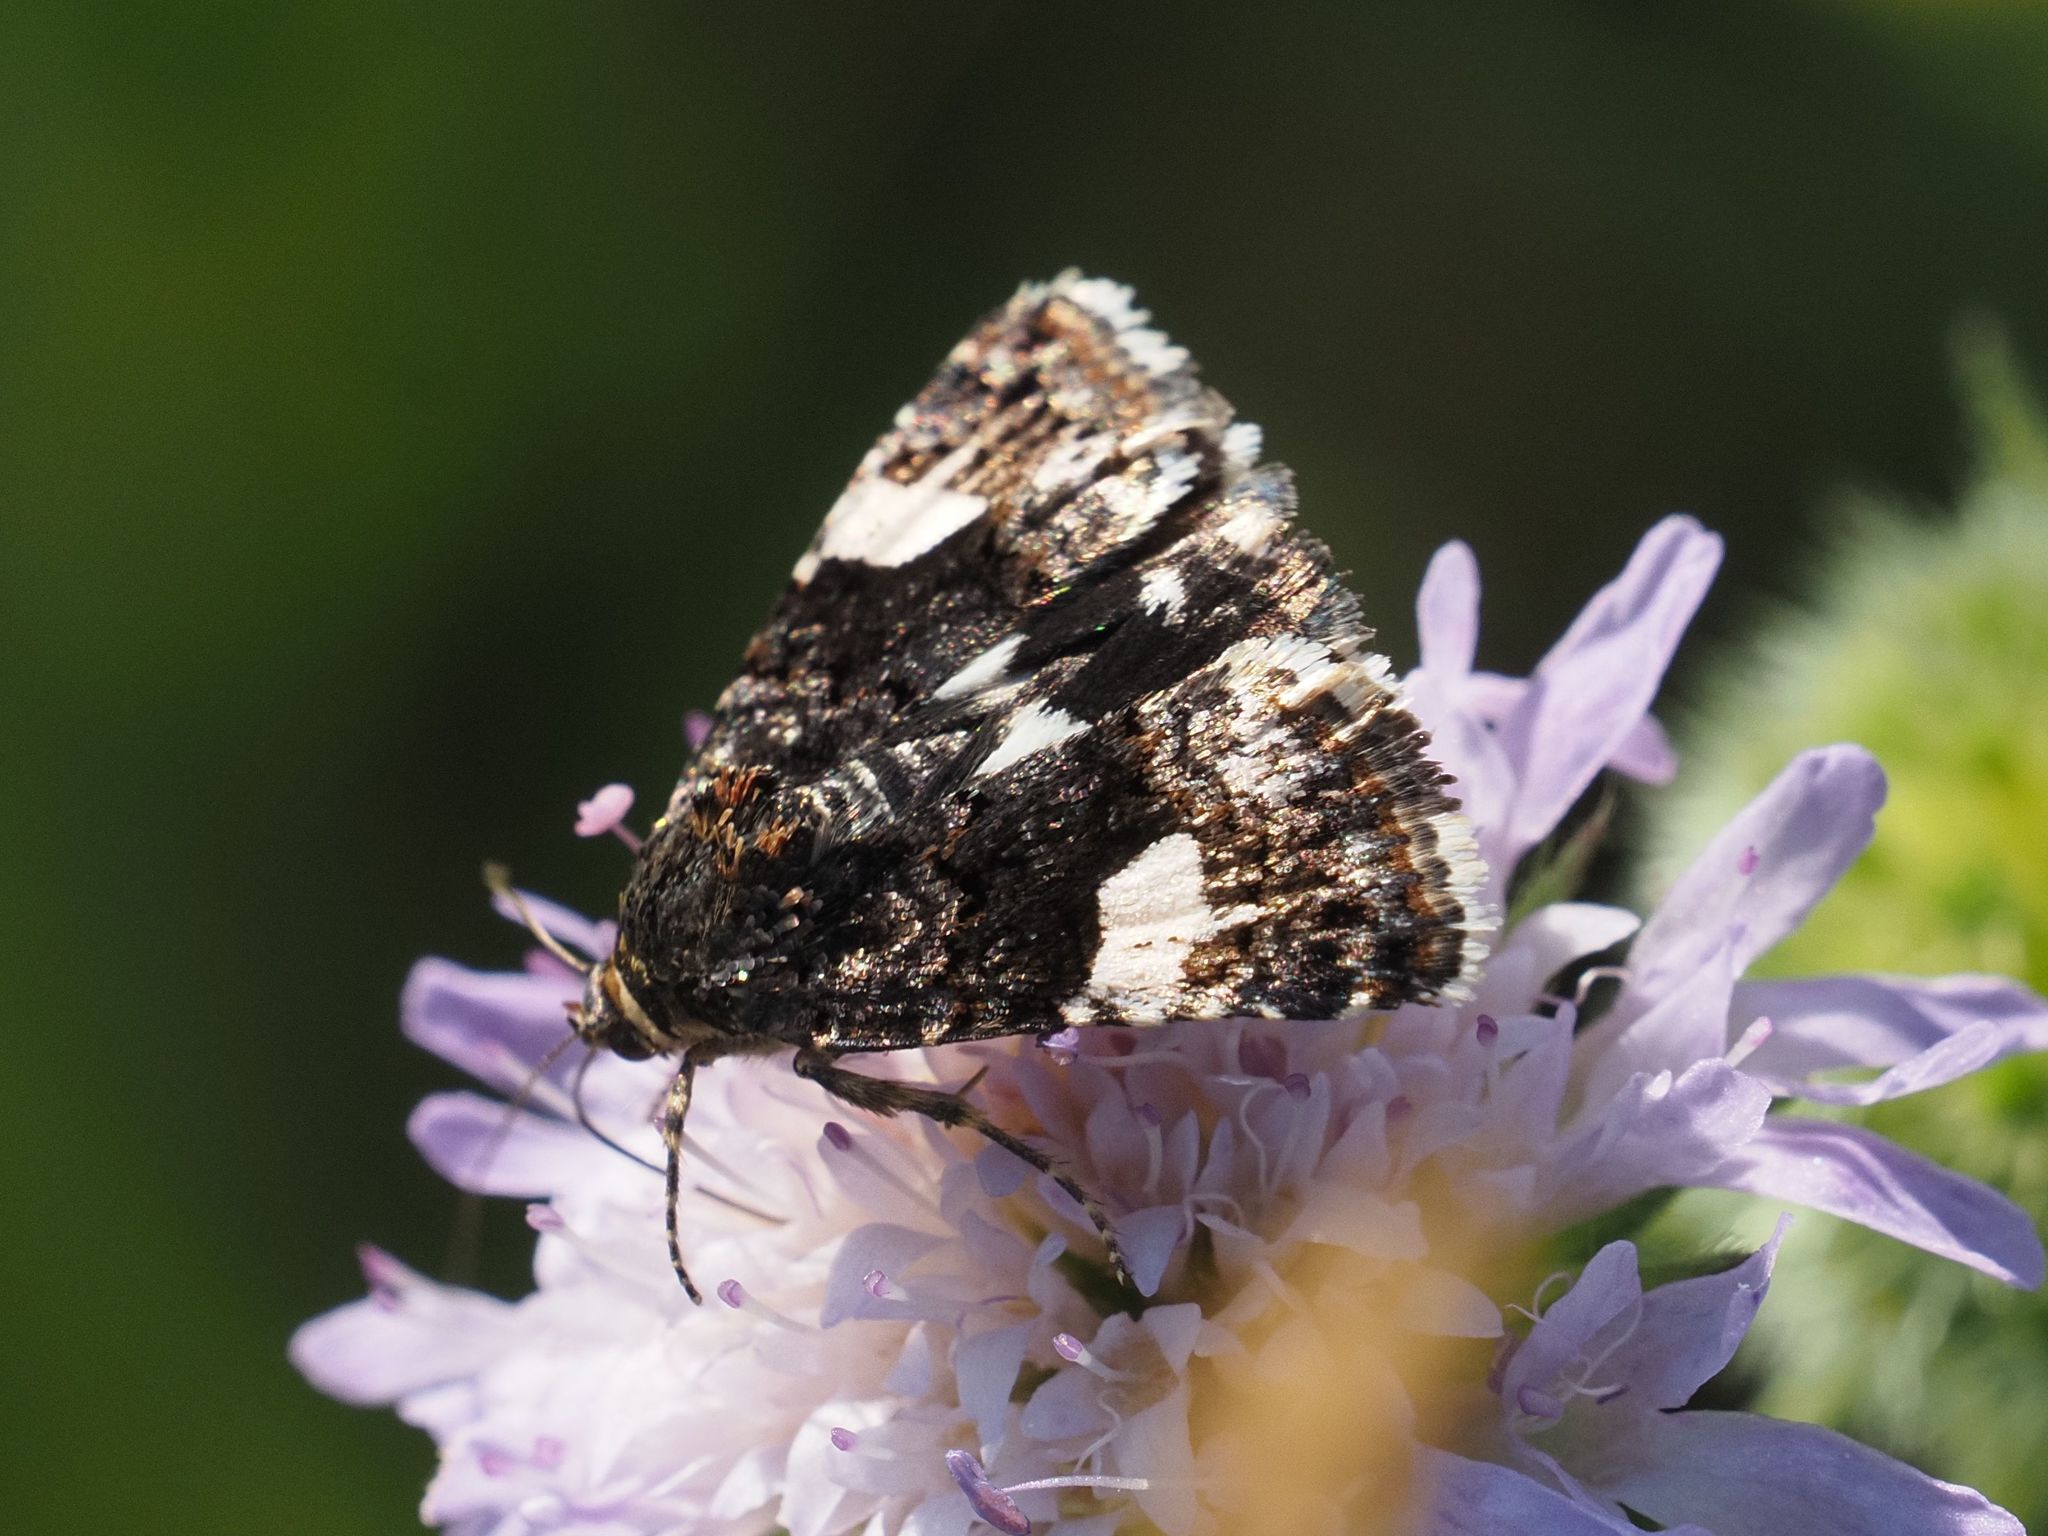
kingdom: Animalia
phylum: Arthropoda
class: Insecta
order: Lepidoptera
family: Erebidae
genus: Tyta
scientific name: Tyta luctuosa
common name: Four-spotted
